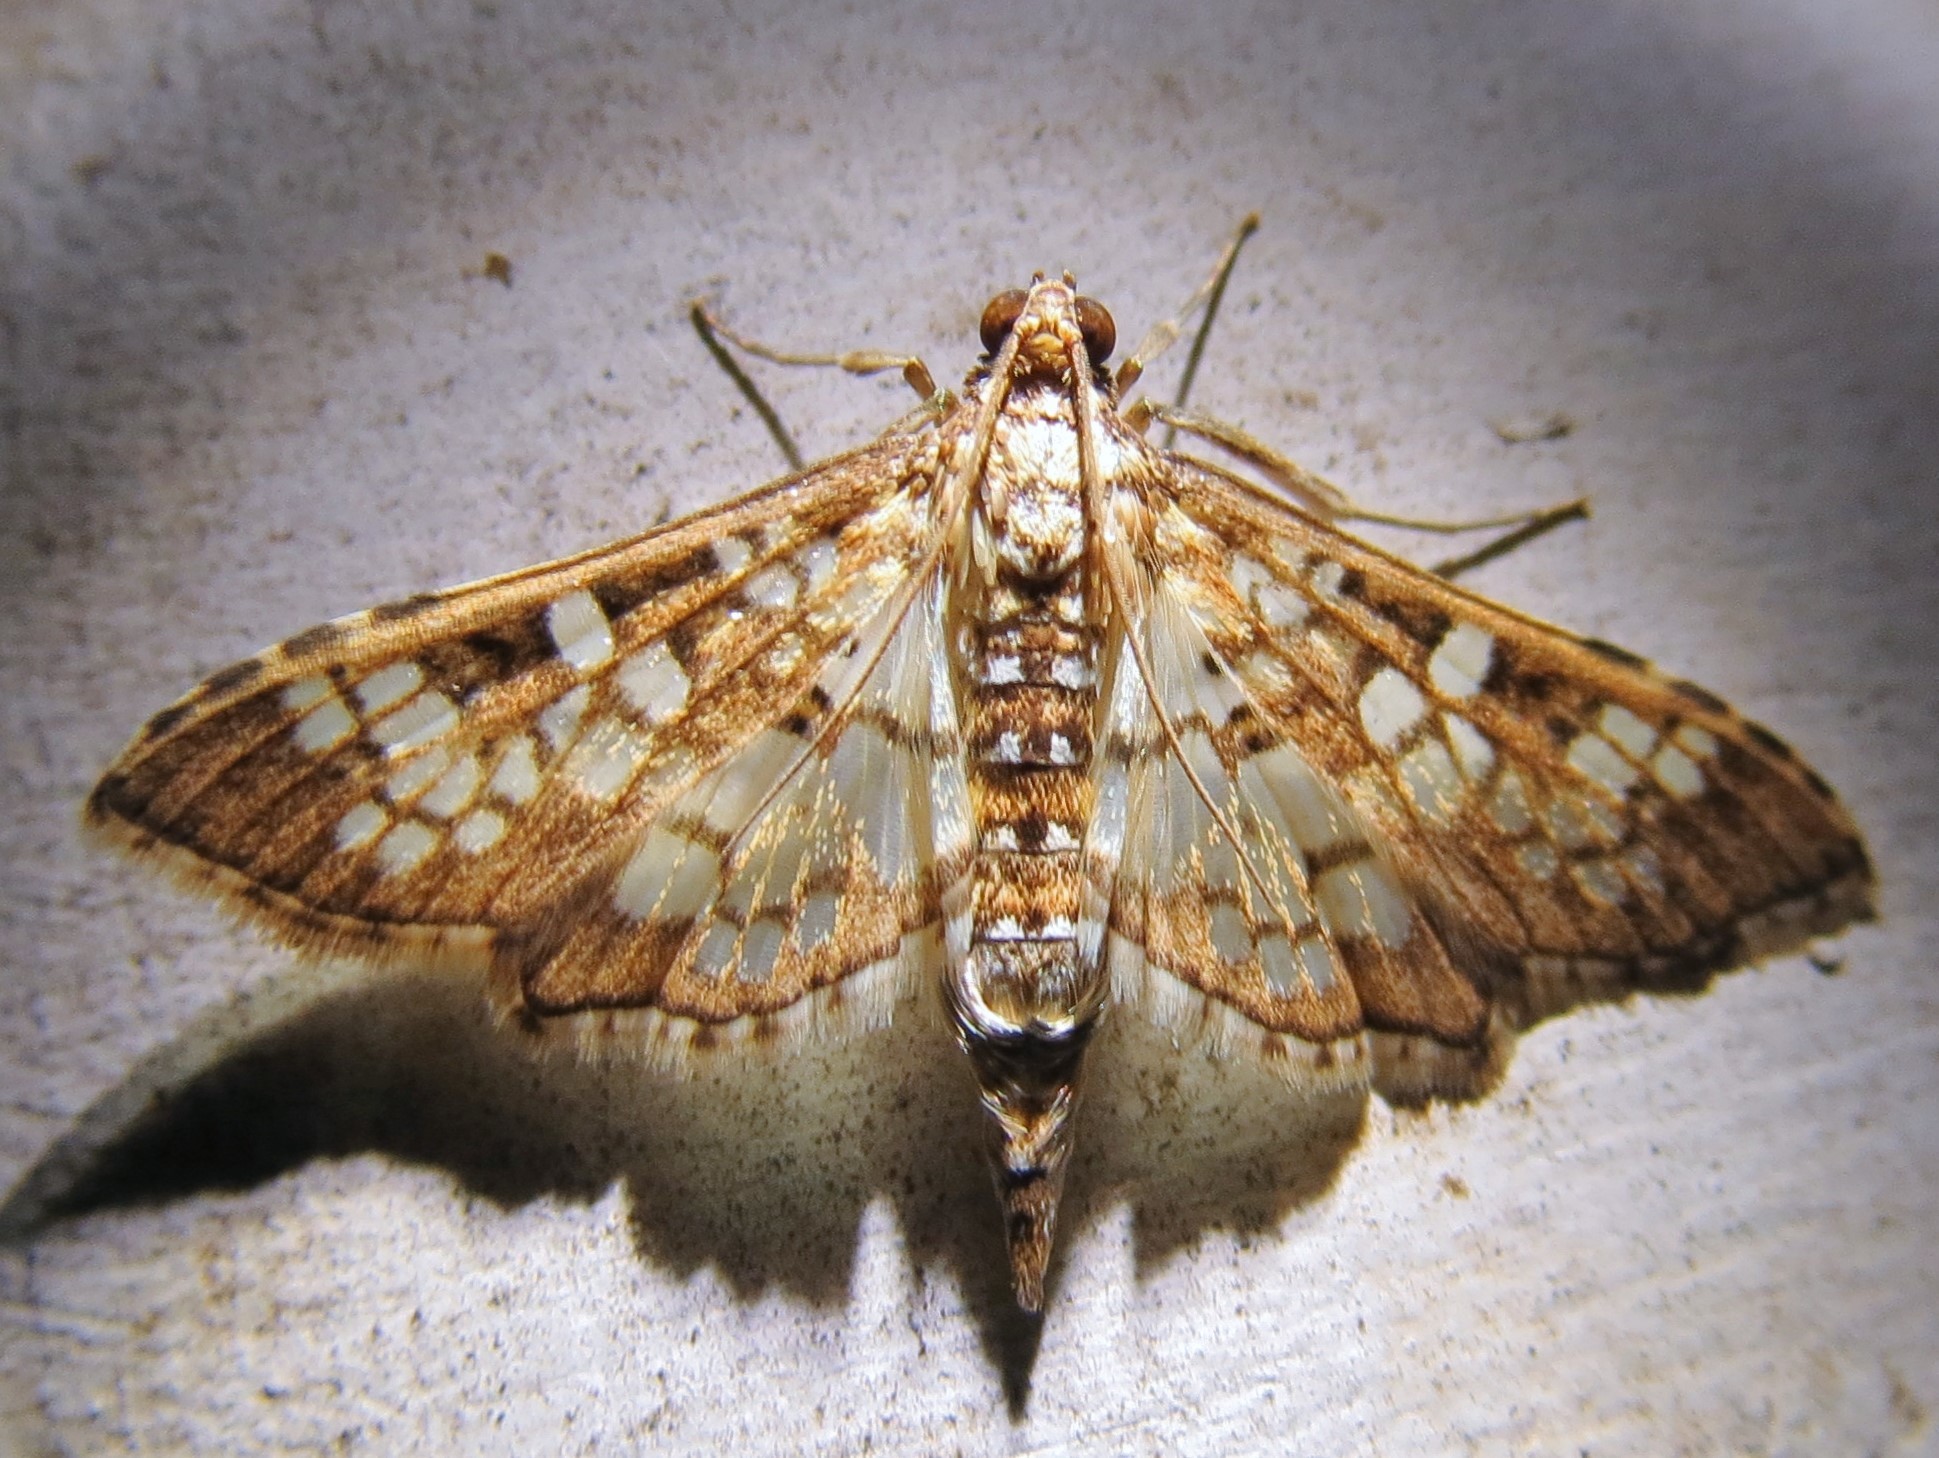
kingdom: Animalia
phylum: Arthropoda
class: Insecta
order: Lepidoptera
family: Crambidae
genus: Samea
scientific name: Samea ecclesialis
